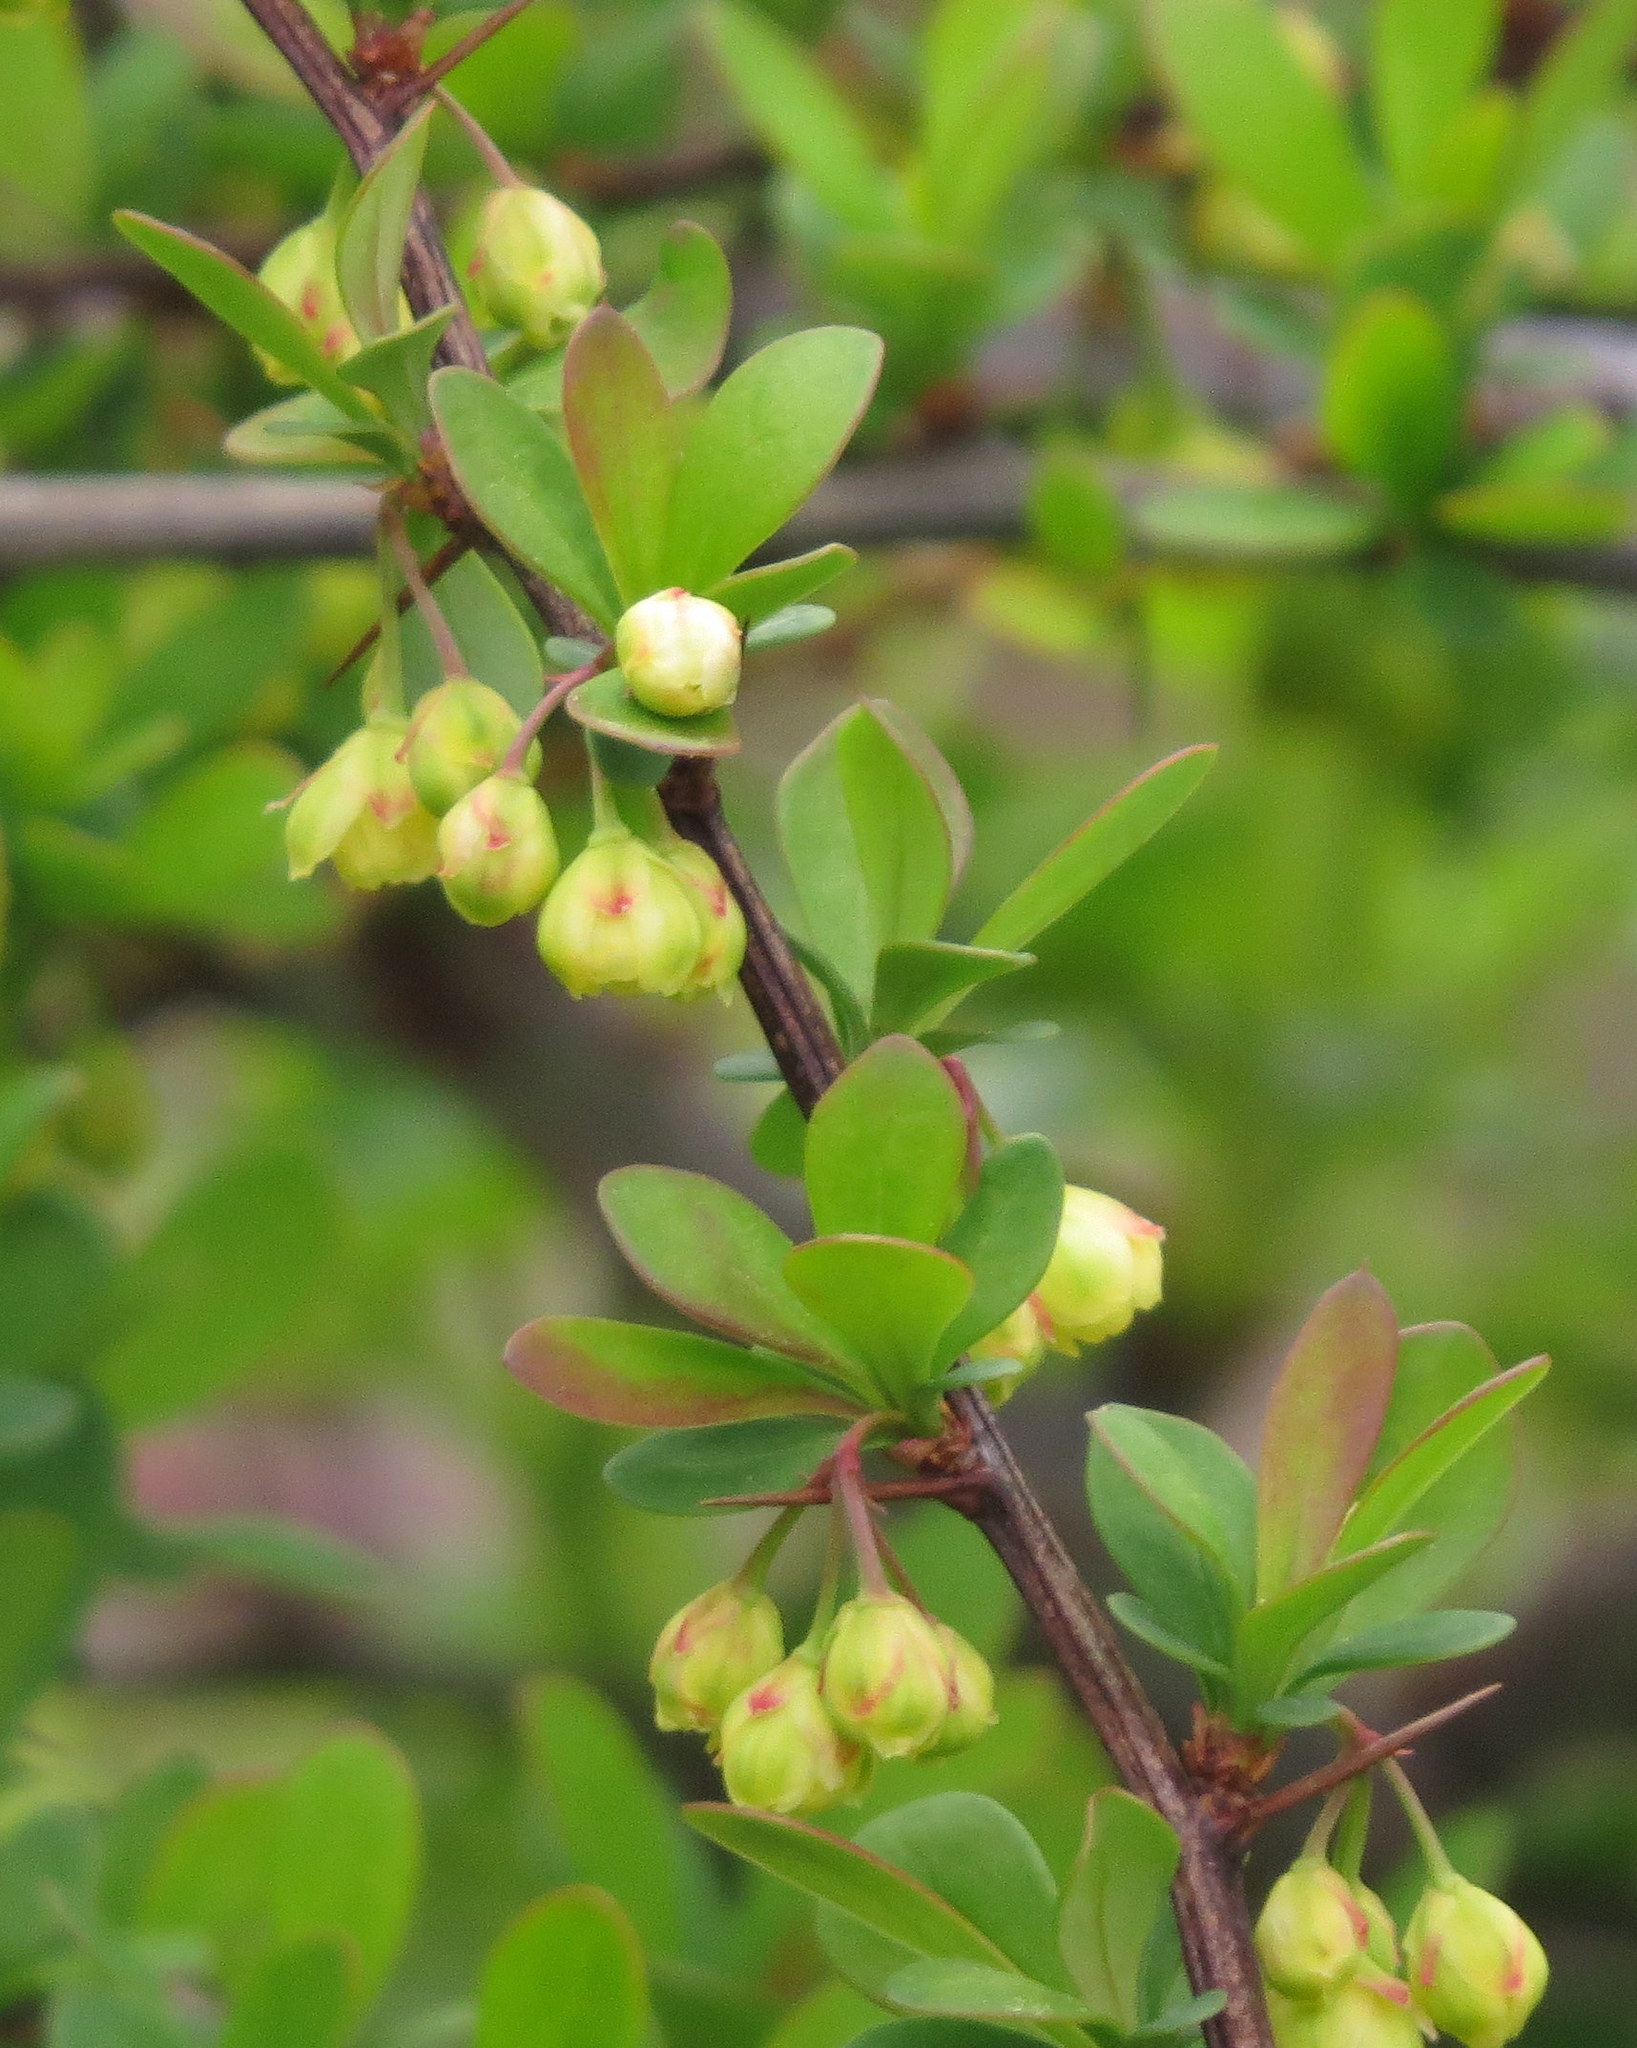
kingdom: Plantae
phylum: Tracheophyta
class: Magnoliopsida
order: Ranunculales
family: Berberidaceae
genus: Berberis
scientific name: Berberis thunbergii
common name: Japanese barberry
